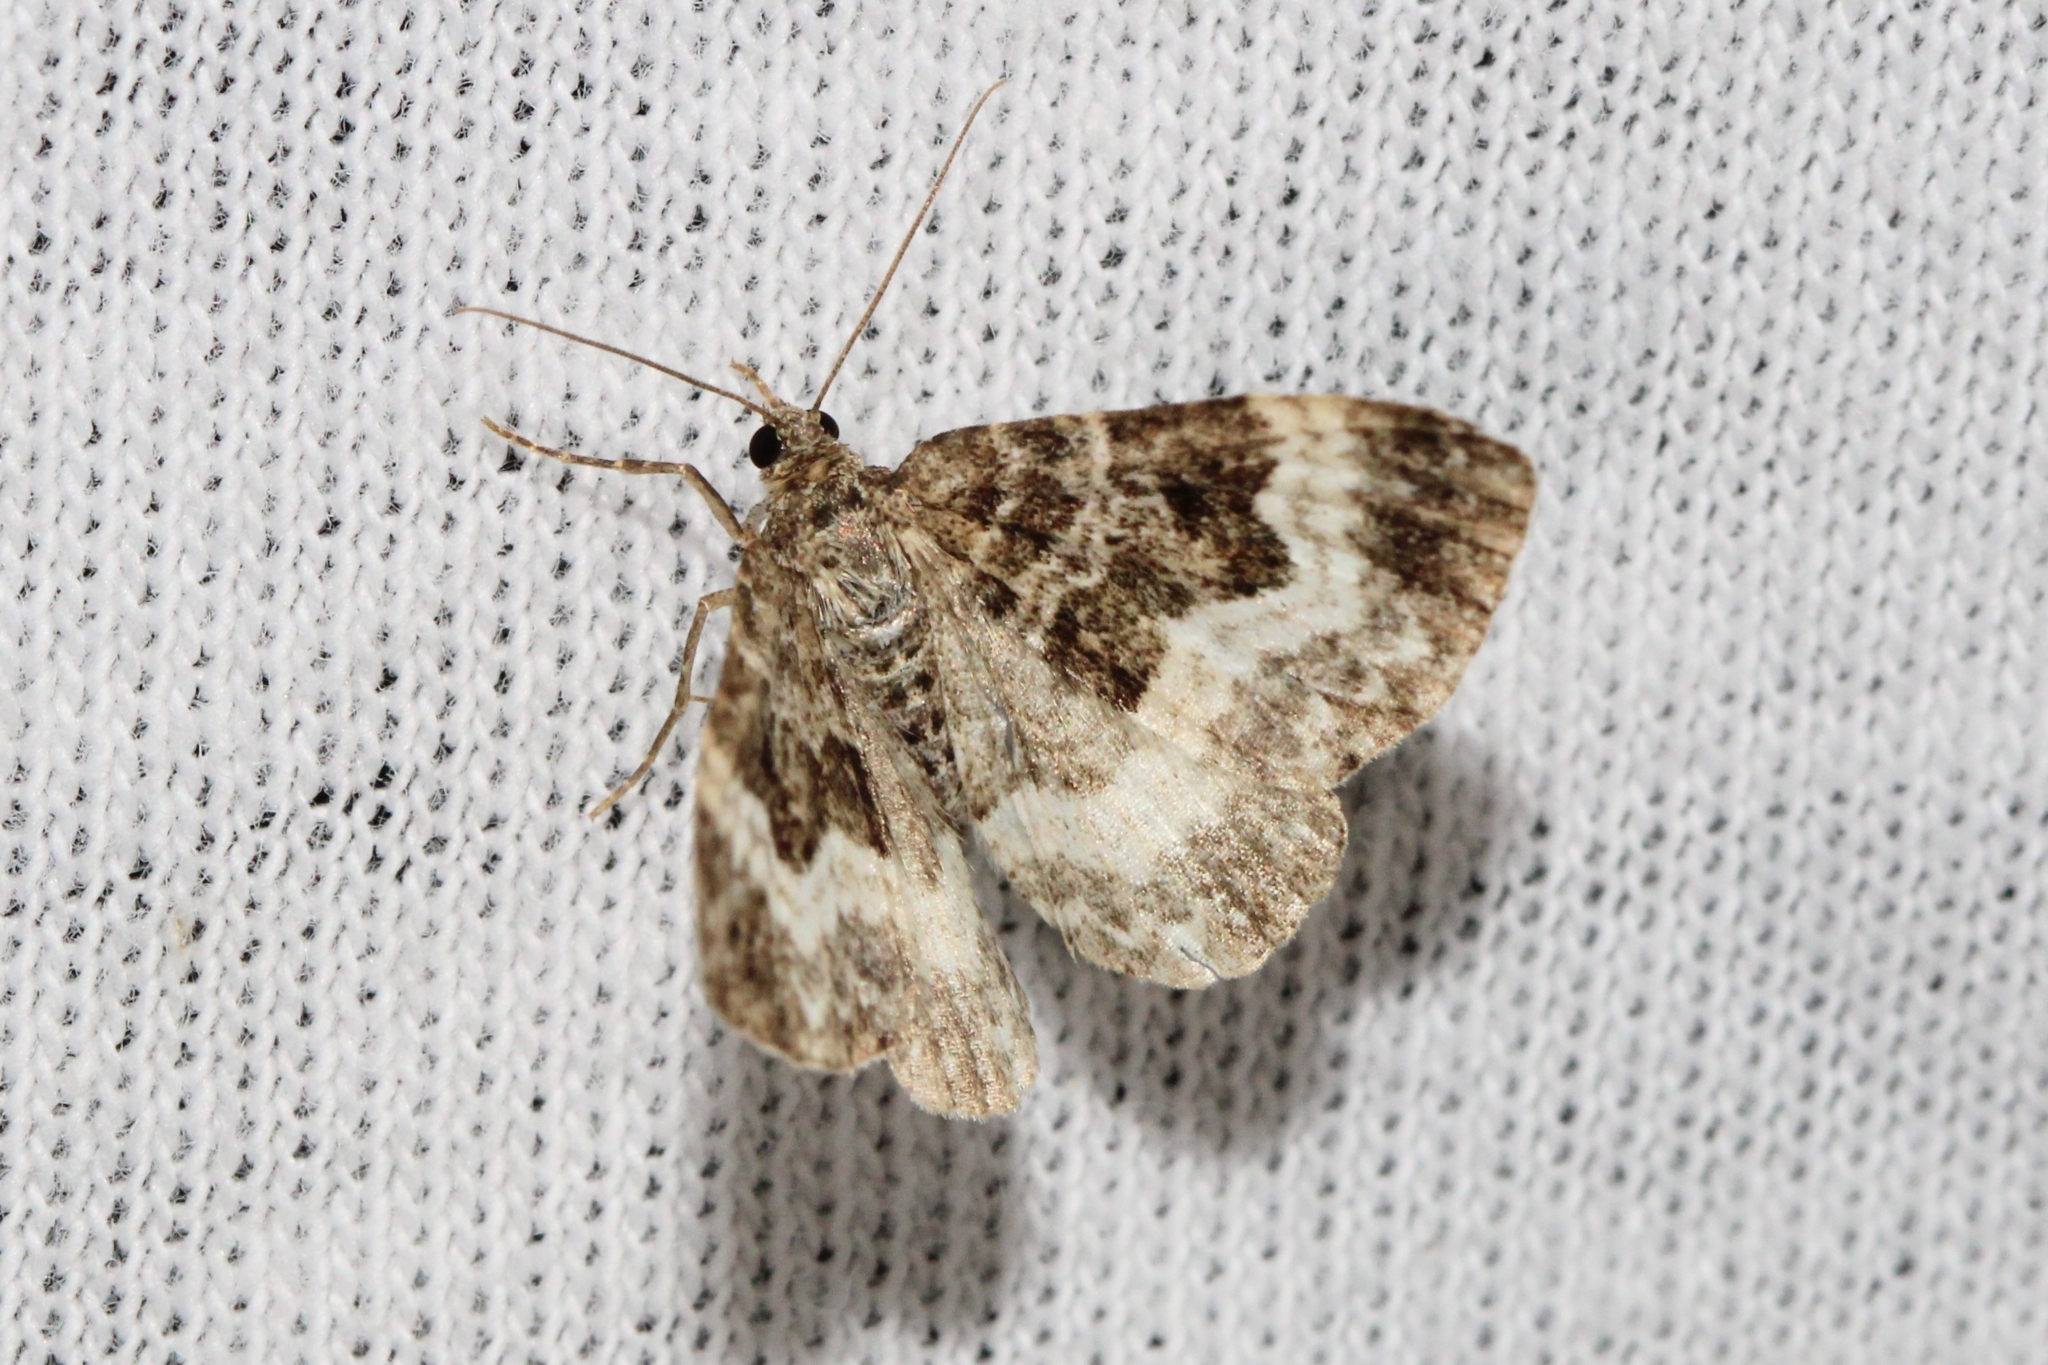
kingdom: Animalia
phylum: Arthropoda
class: Insecta
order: Lepidoptera
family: Geometridae
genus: Epirrhoe
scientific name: Epirrhoe alternata
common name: Common carpet
